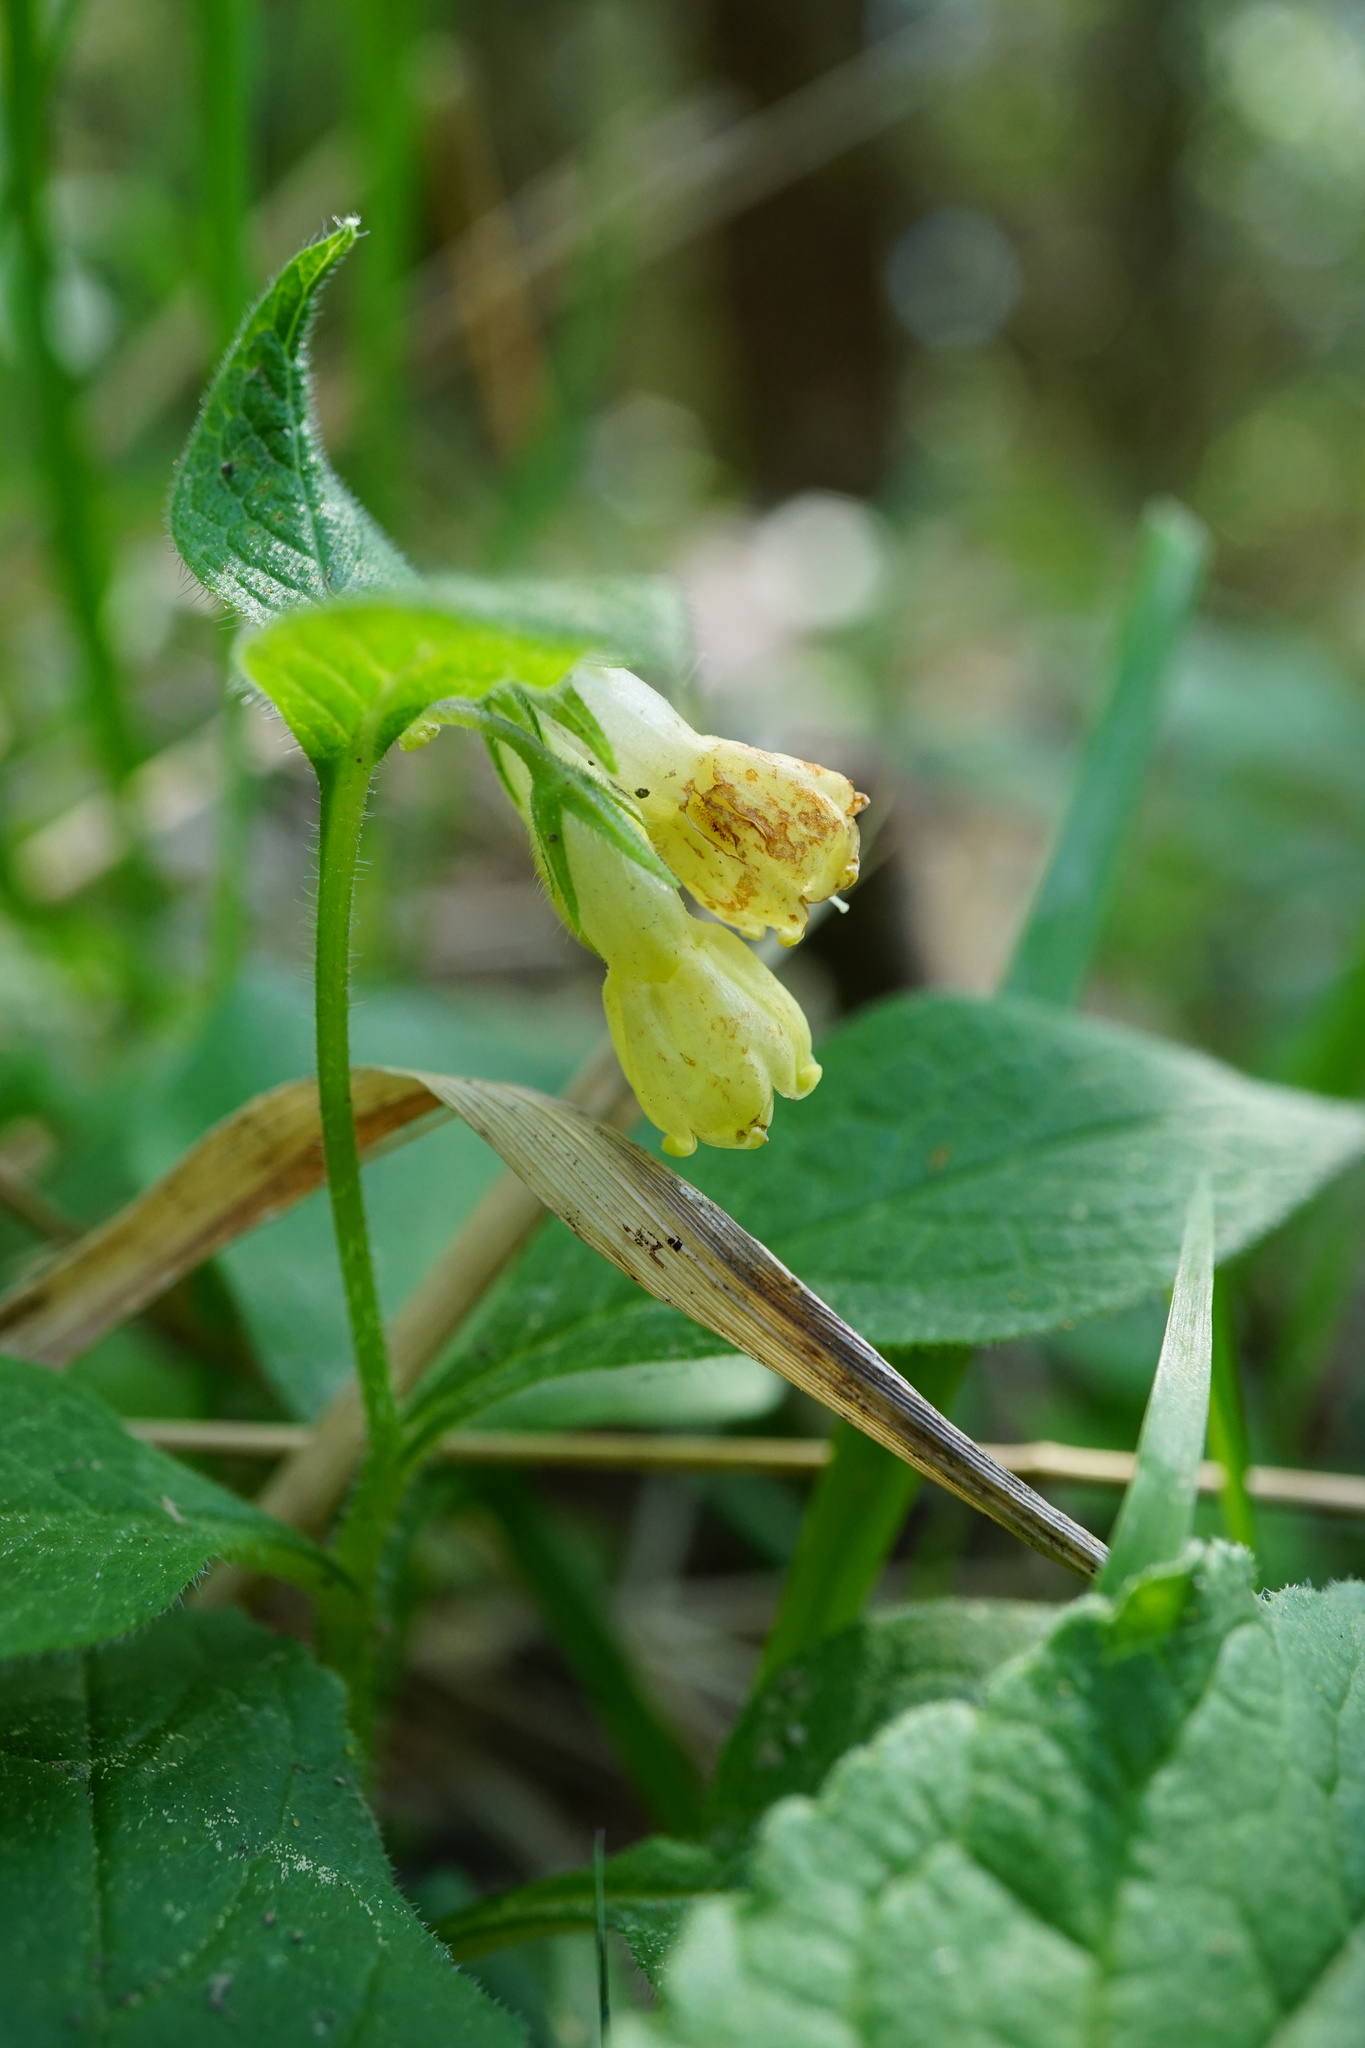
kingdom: Plantae
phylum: Tracheophyta
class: Magnoliopsida
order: Boraginales
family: Boraginaceae
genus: Symphytum
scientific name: Symphytum tuberosum
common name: Tuberous comfrey
